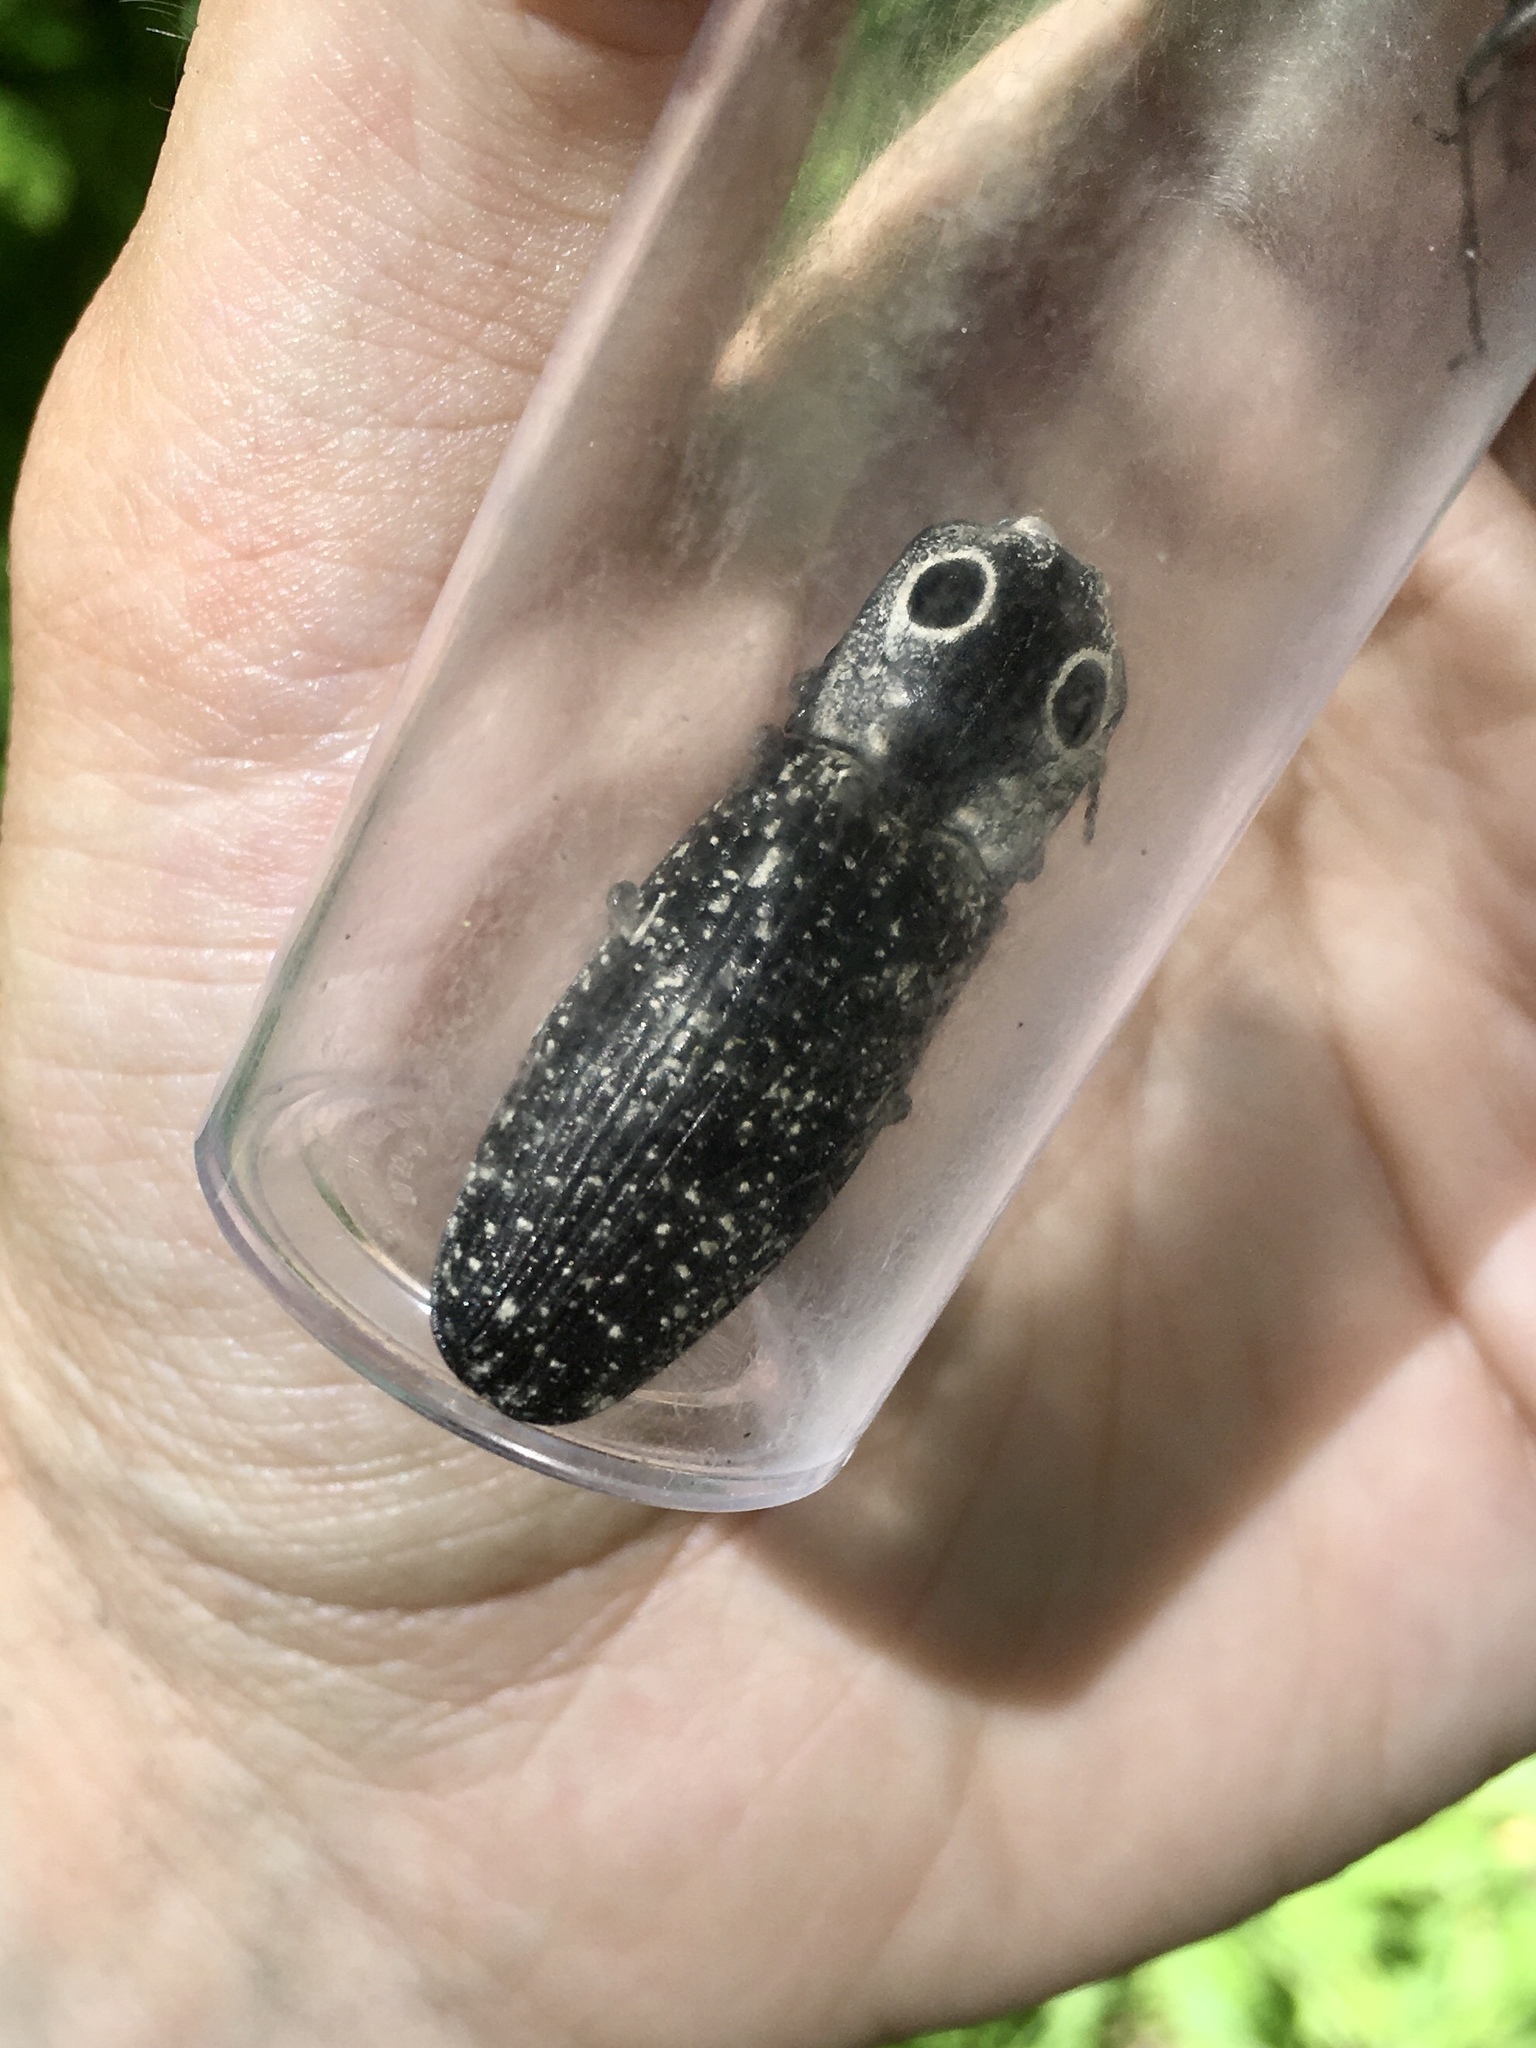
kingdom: Animalia
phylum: Arthropoda
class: Insecta
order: Coleoptera
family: Elateridae
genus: Alaus
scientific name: Alaus oculatus
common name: Eastern eyed click beetle
